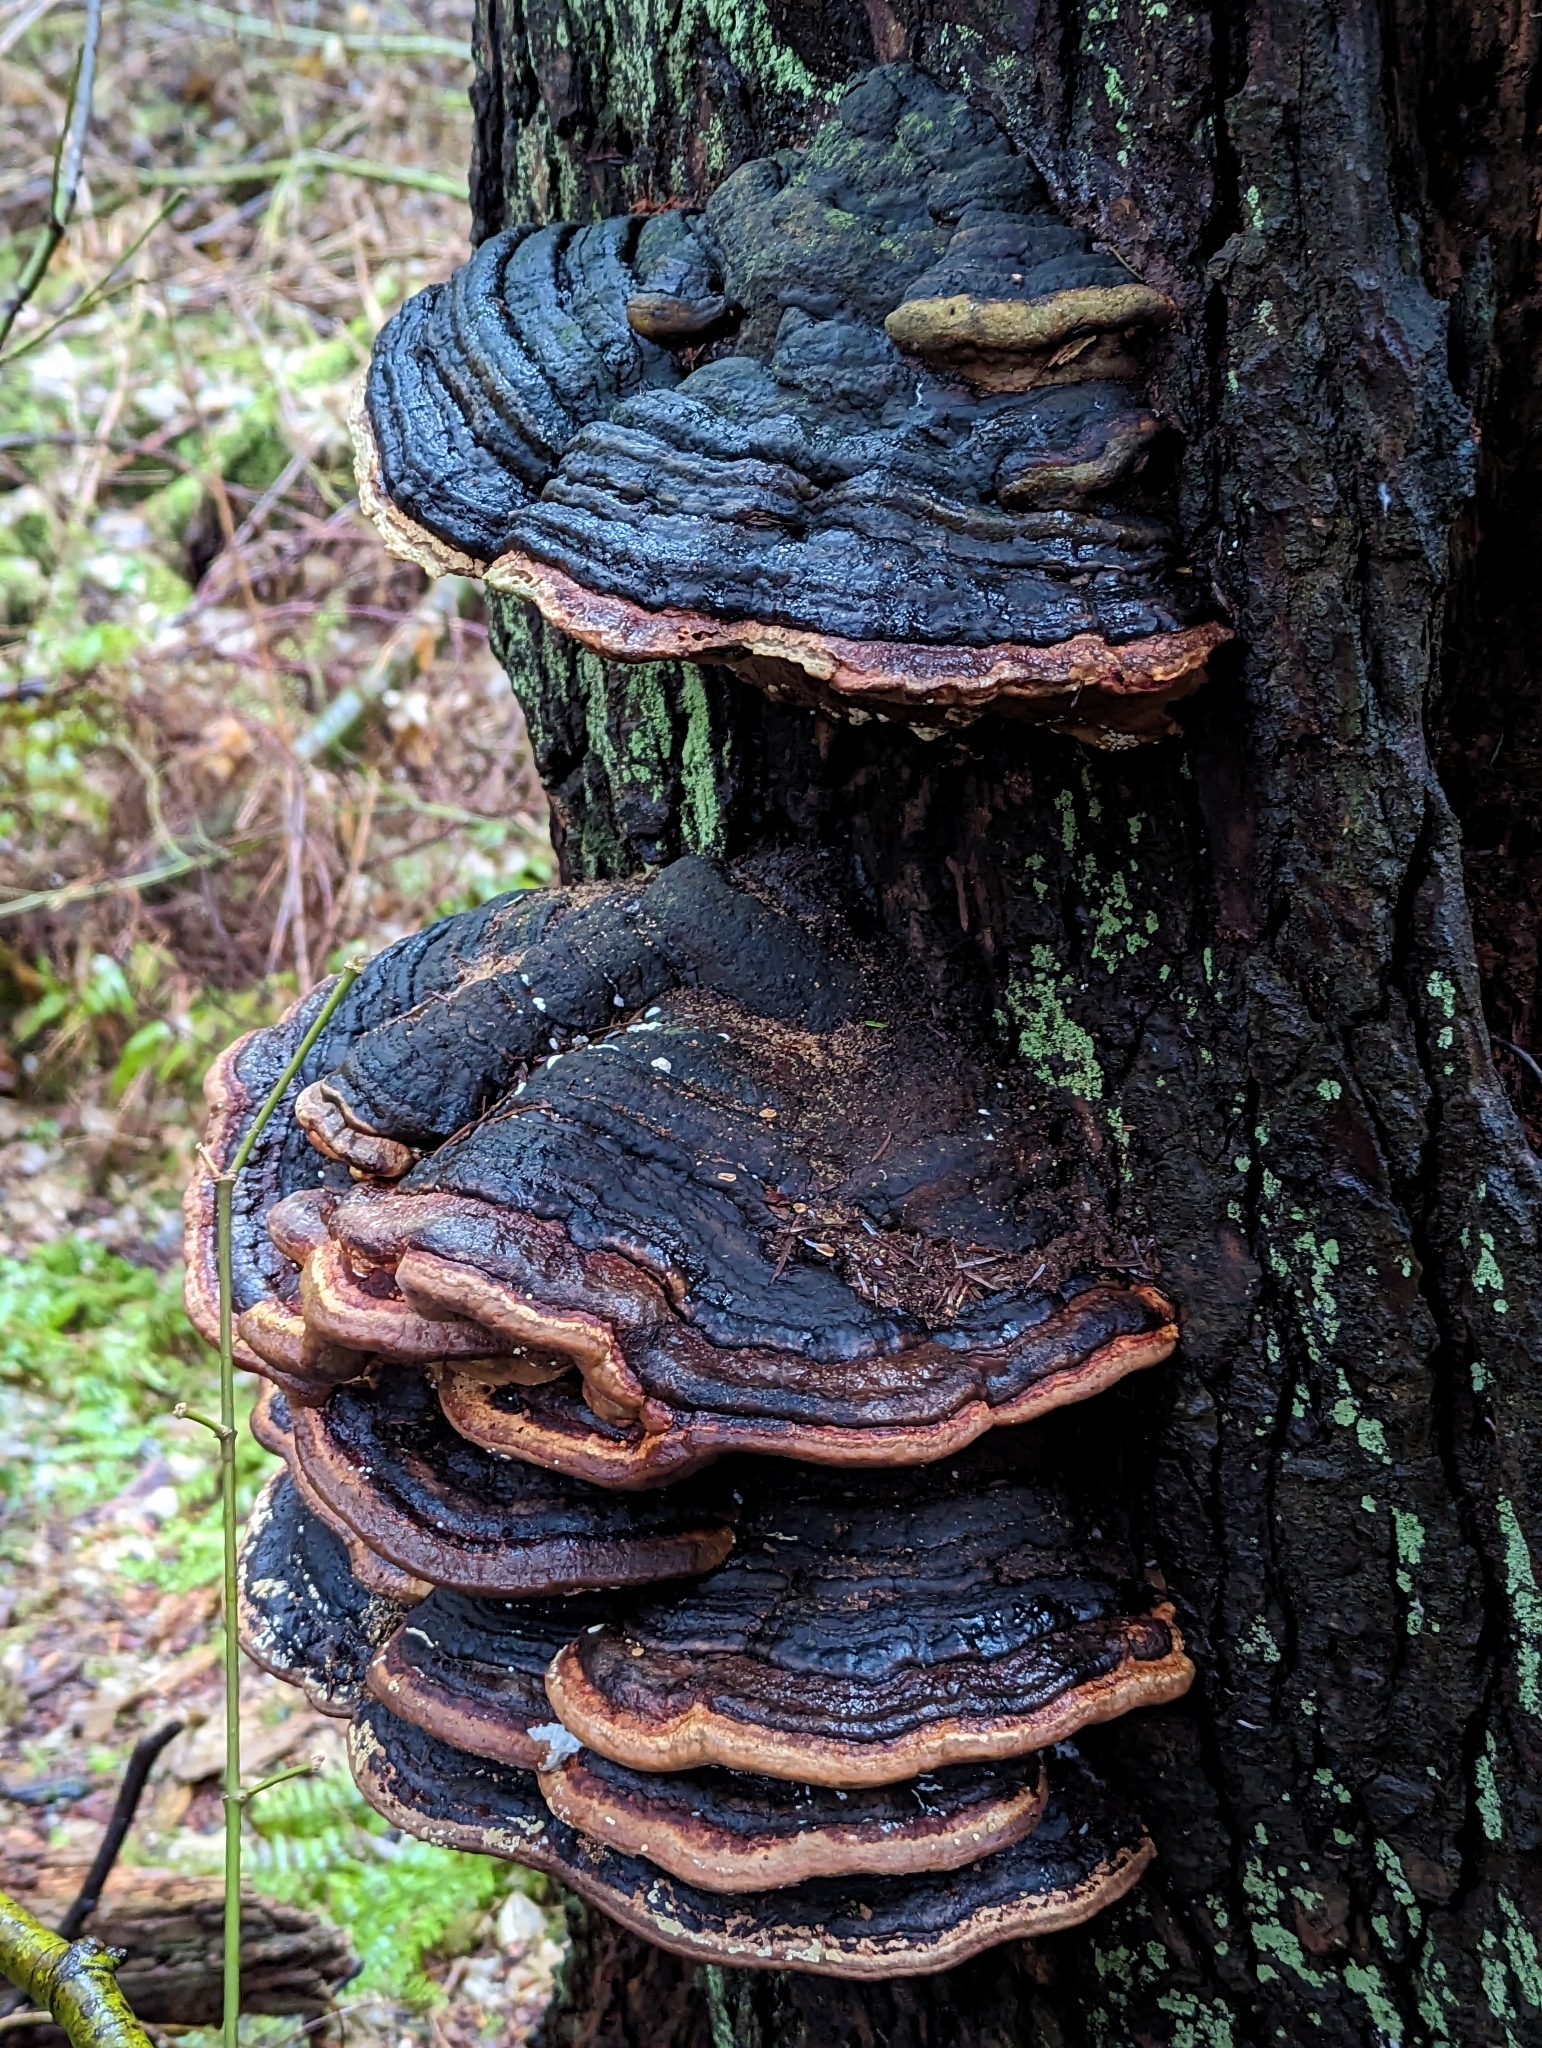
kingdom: Fungi
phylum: Basidiomycota
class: Agaricomycetes
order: Polyporales
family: Fomitopsidaceae
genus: Fomitopsis
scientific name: Fomitopsis ochracea
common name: American brown fomitopsis
